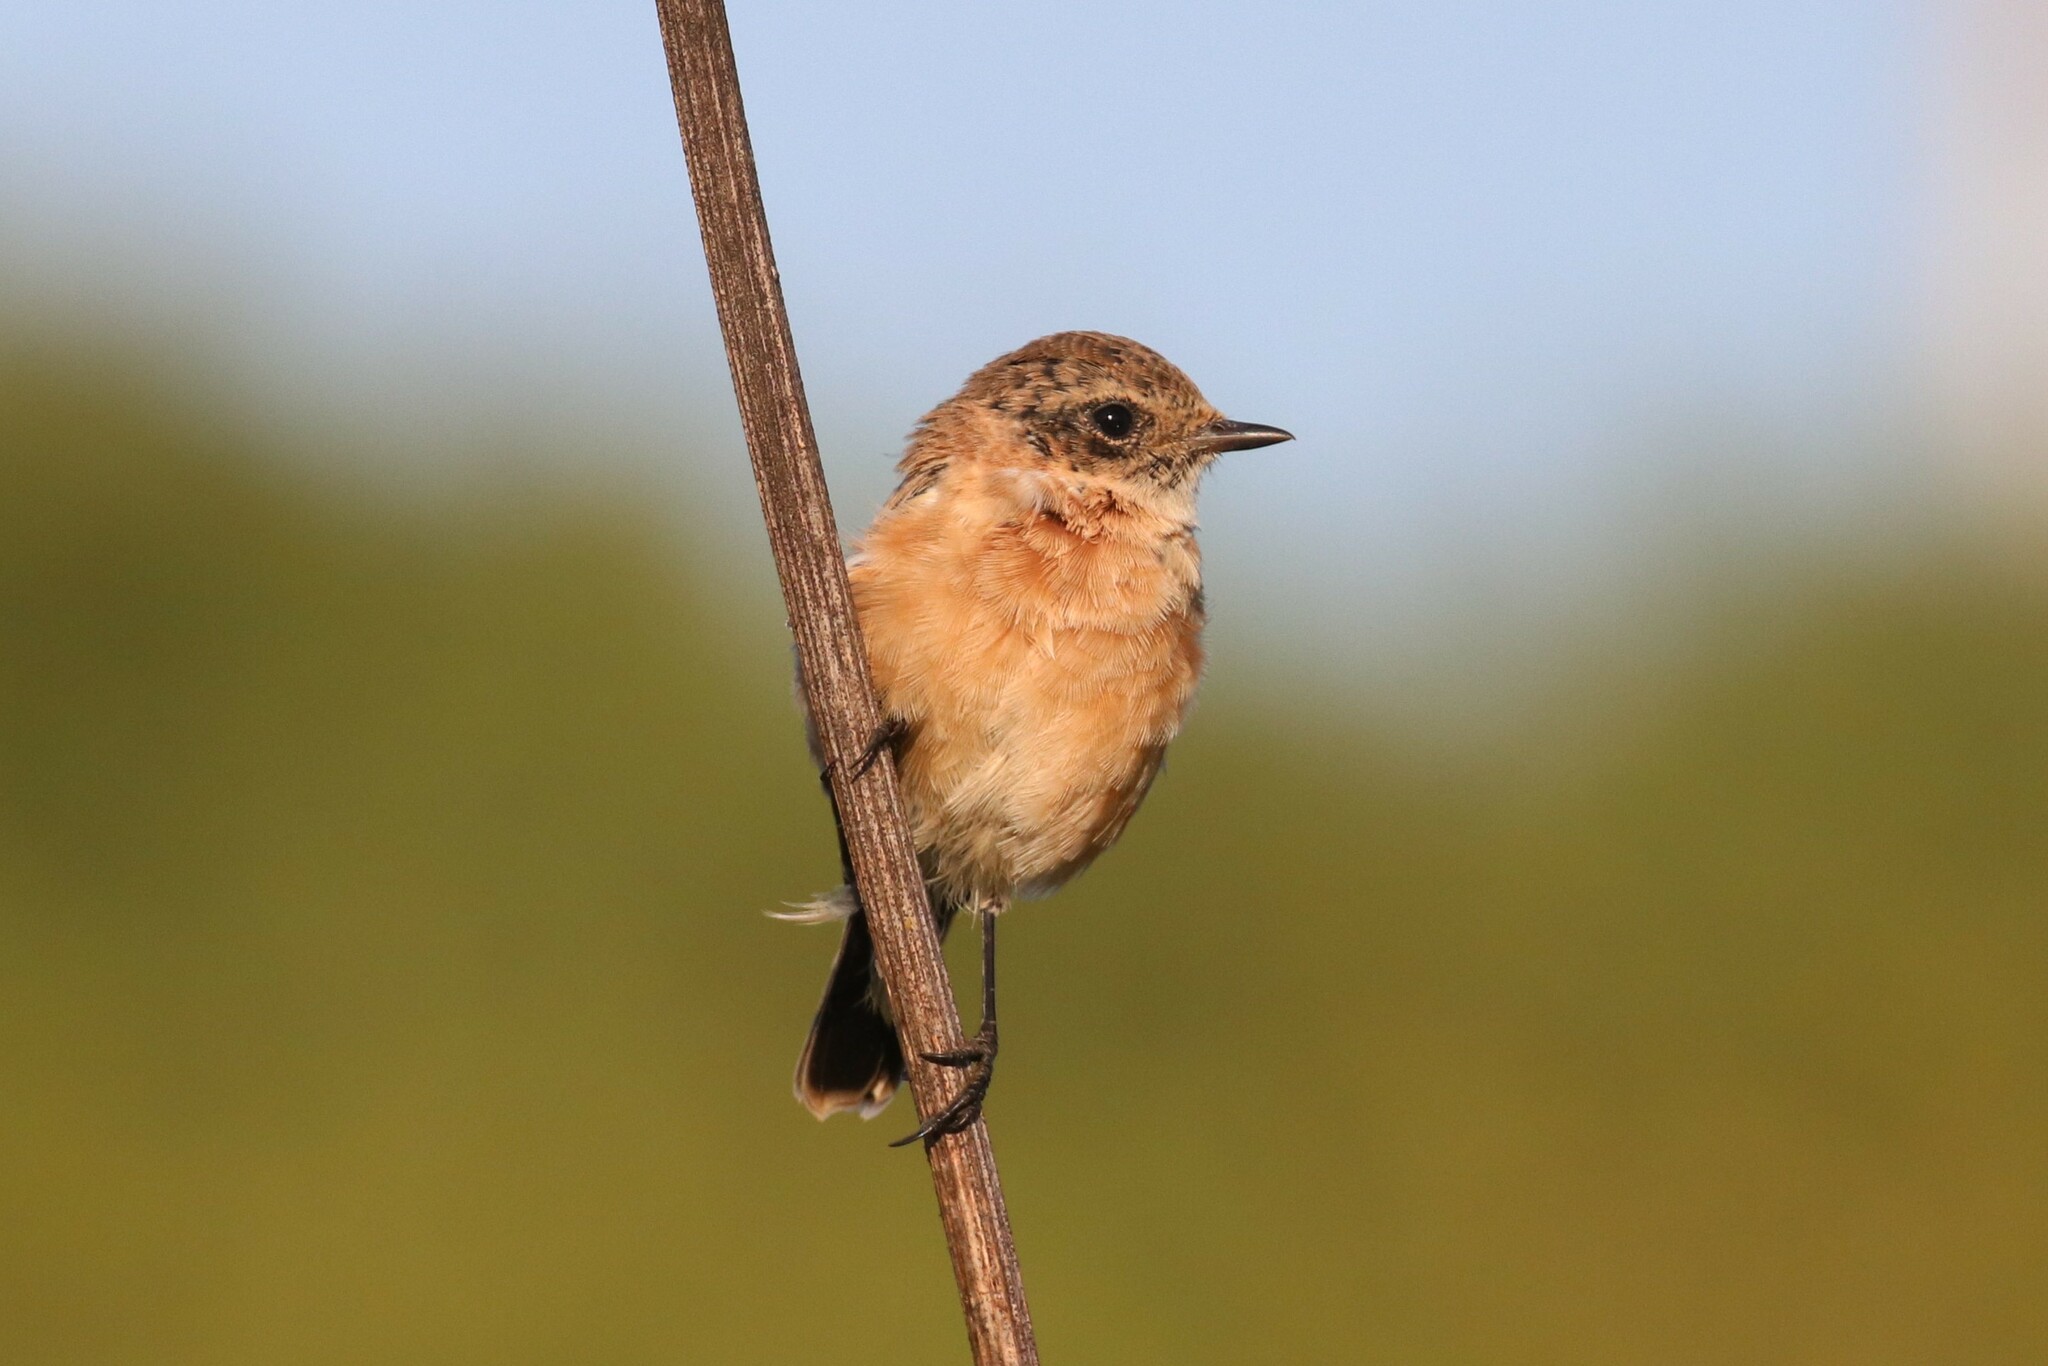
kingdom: Animalia
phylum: Chordata
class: Aves
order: Passeriformes
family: Muscicapidae
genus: Saxicola
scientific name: Saxicola maurus
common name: Siberian stonechat
